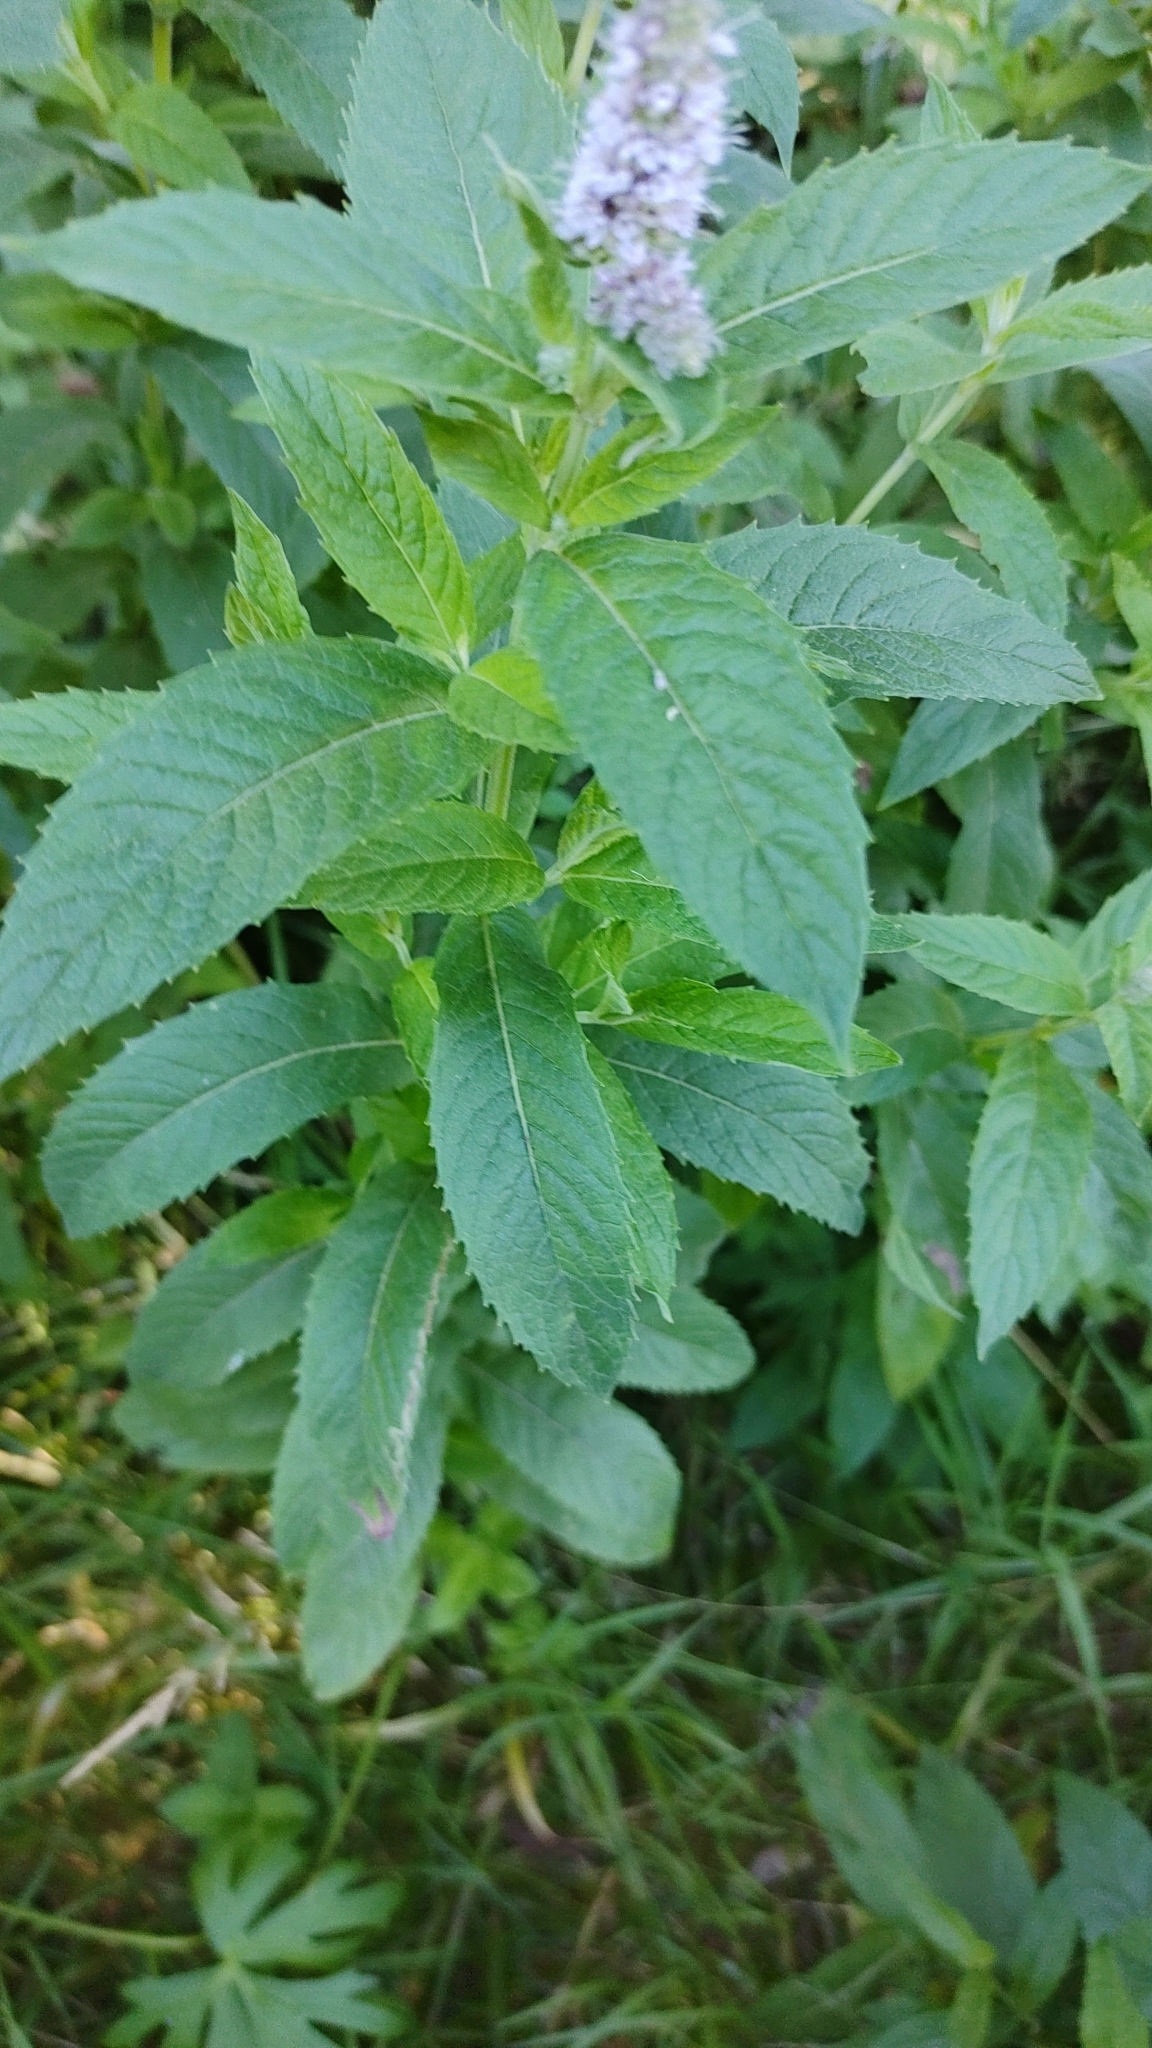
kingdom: Plantae
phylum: Tracheophyta
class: Magnoliopsida
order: Lamiales
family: Lamiaceae
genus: Mentha
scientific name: Mentha longifolia
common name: Horse mint
